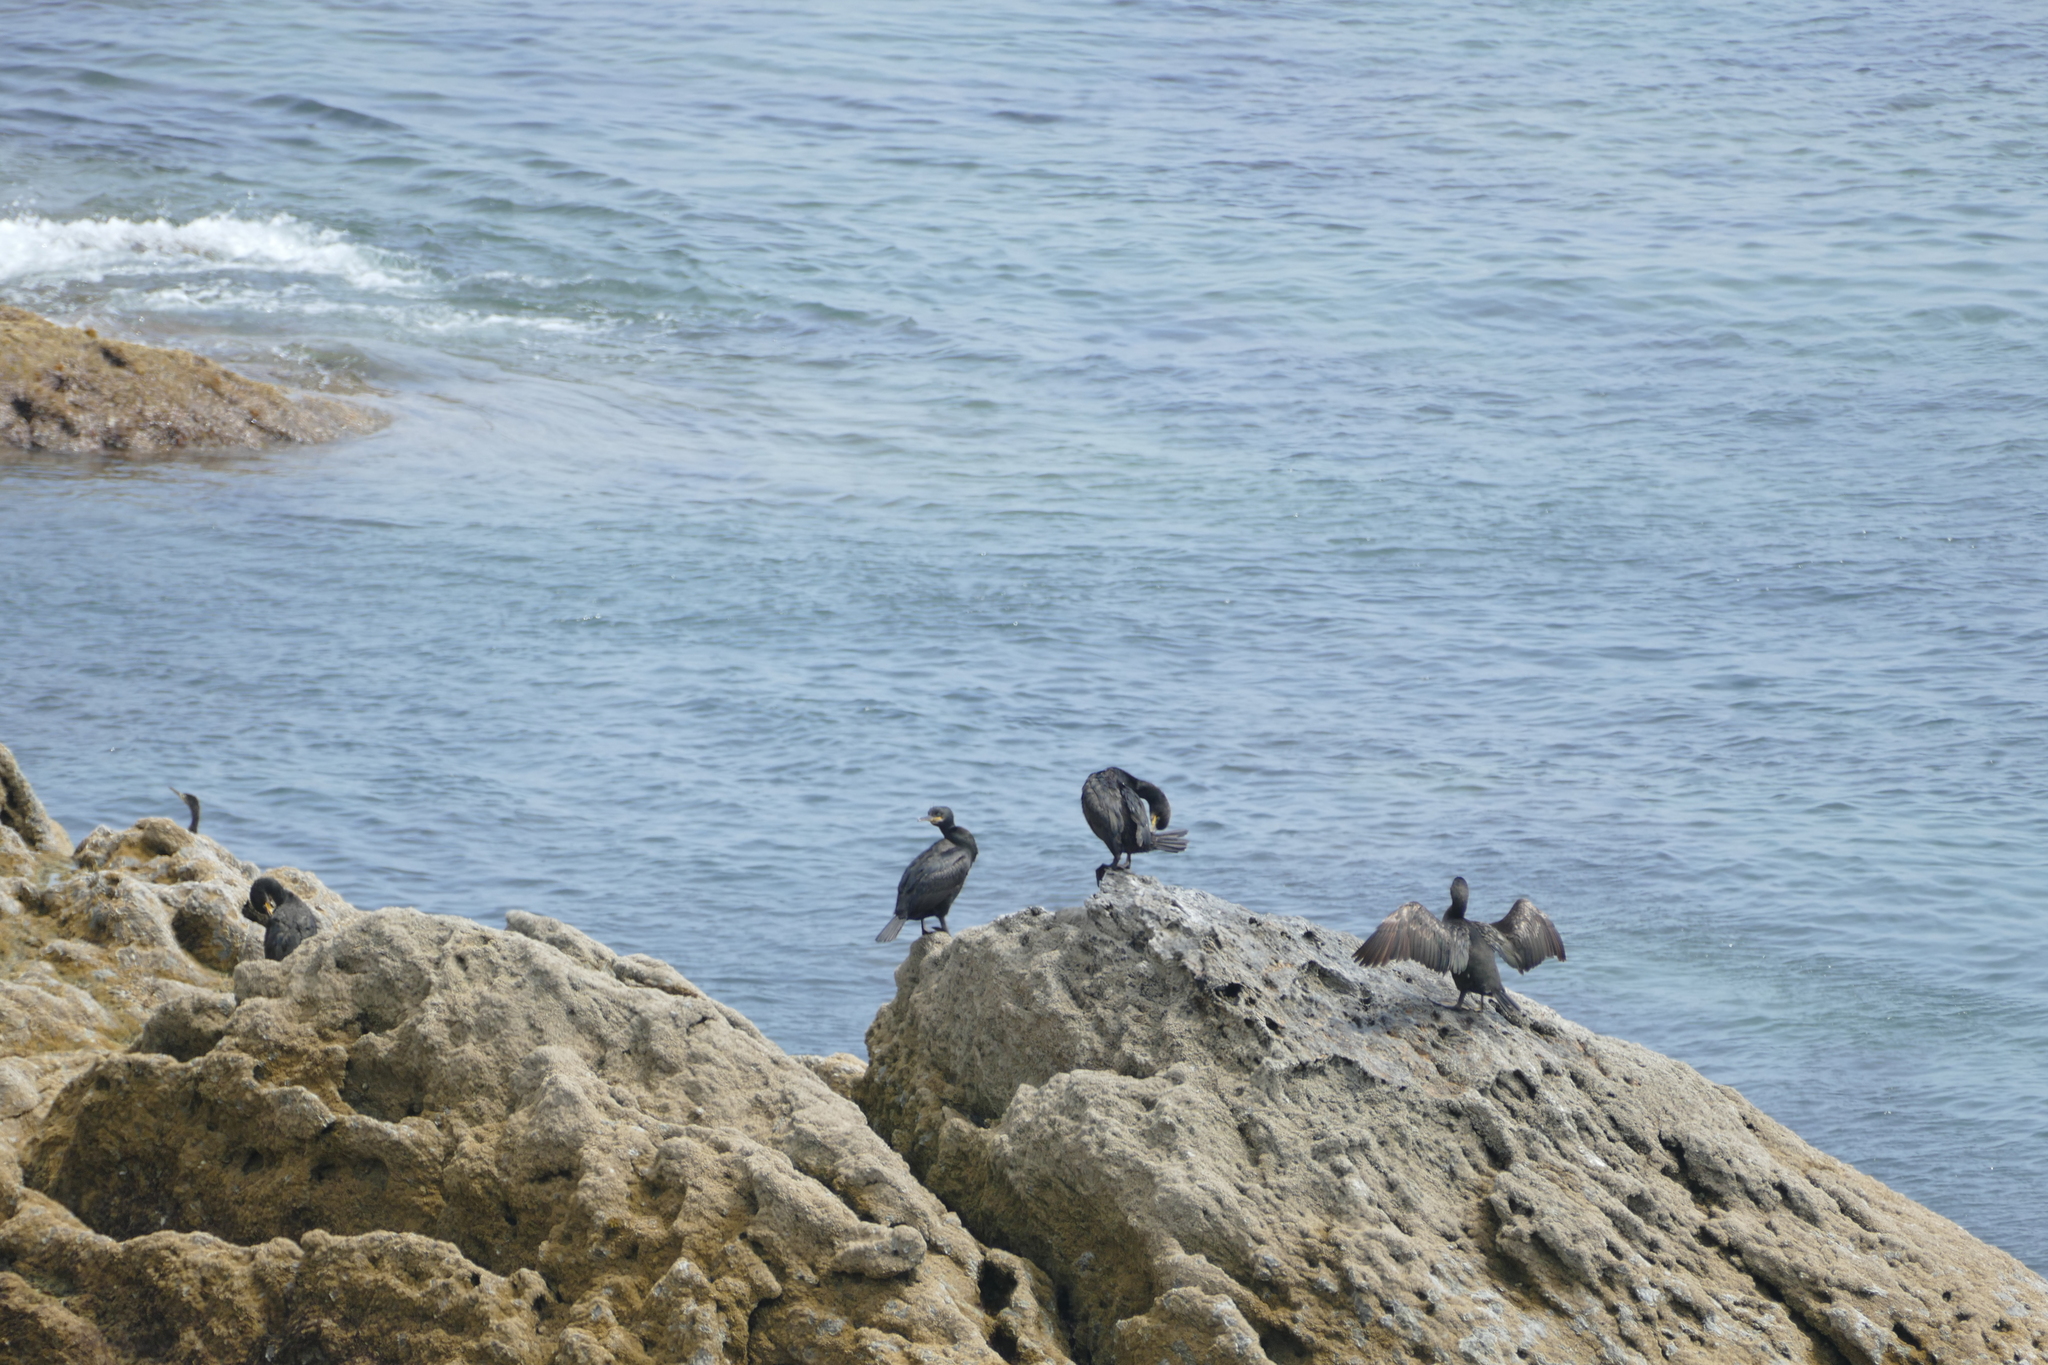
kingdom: Animalia
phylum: Chordata
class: Aves
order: Suliformes
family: Phalacrocoracidae
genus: Phalacrocorax
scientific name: Phalacrocorax aristotelis
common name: European shag
